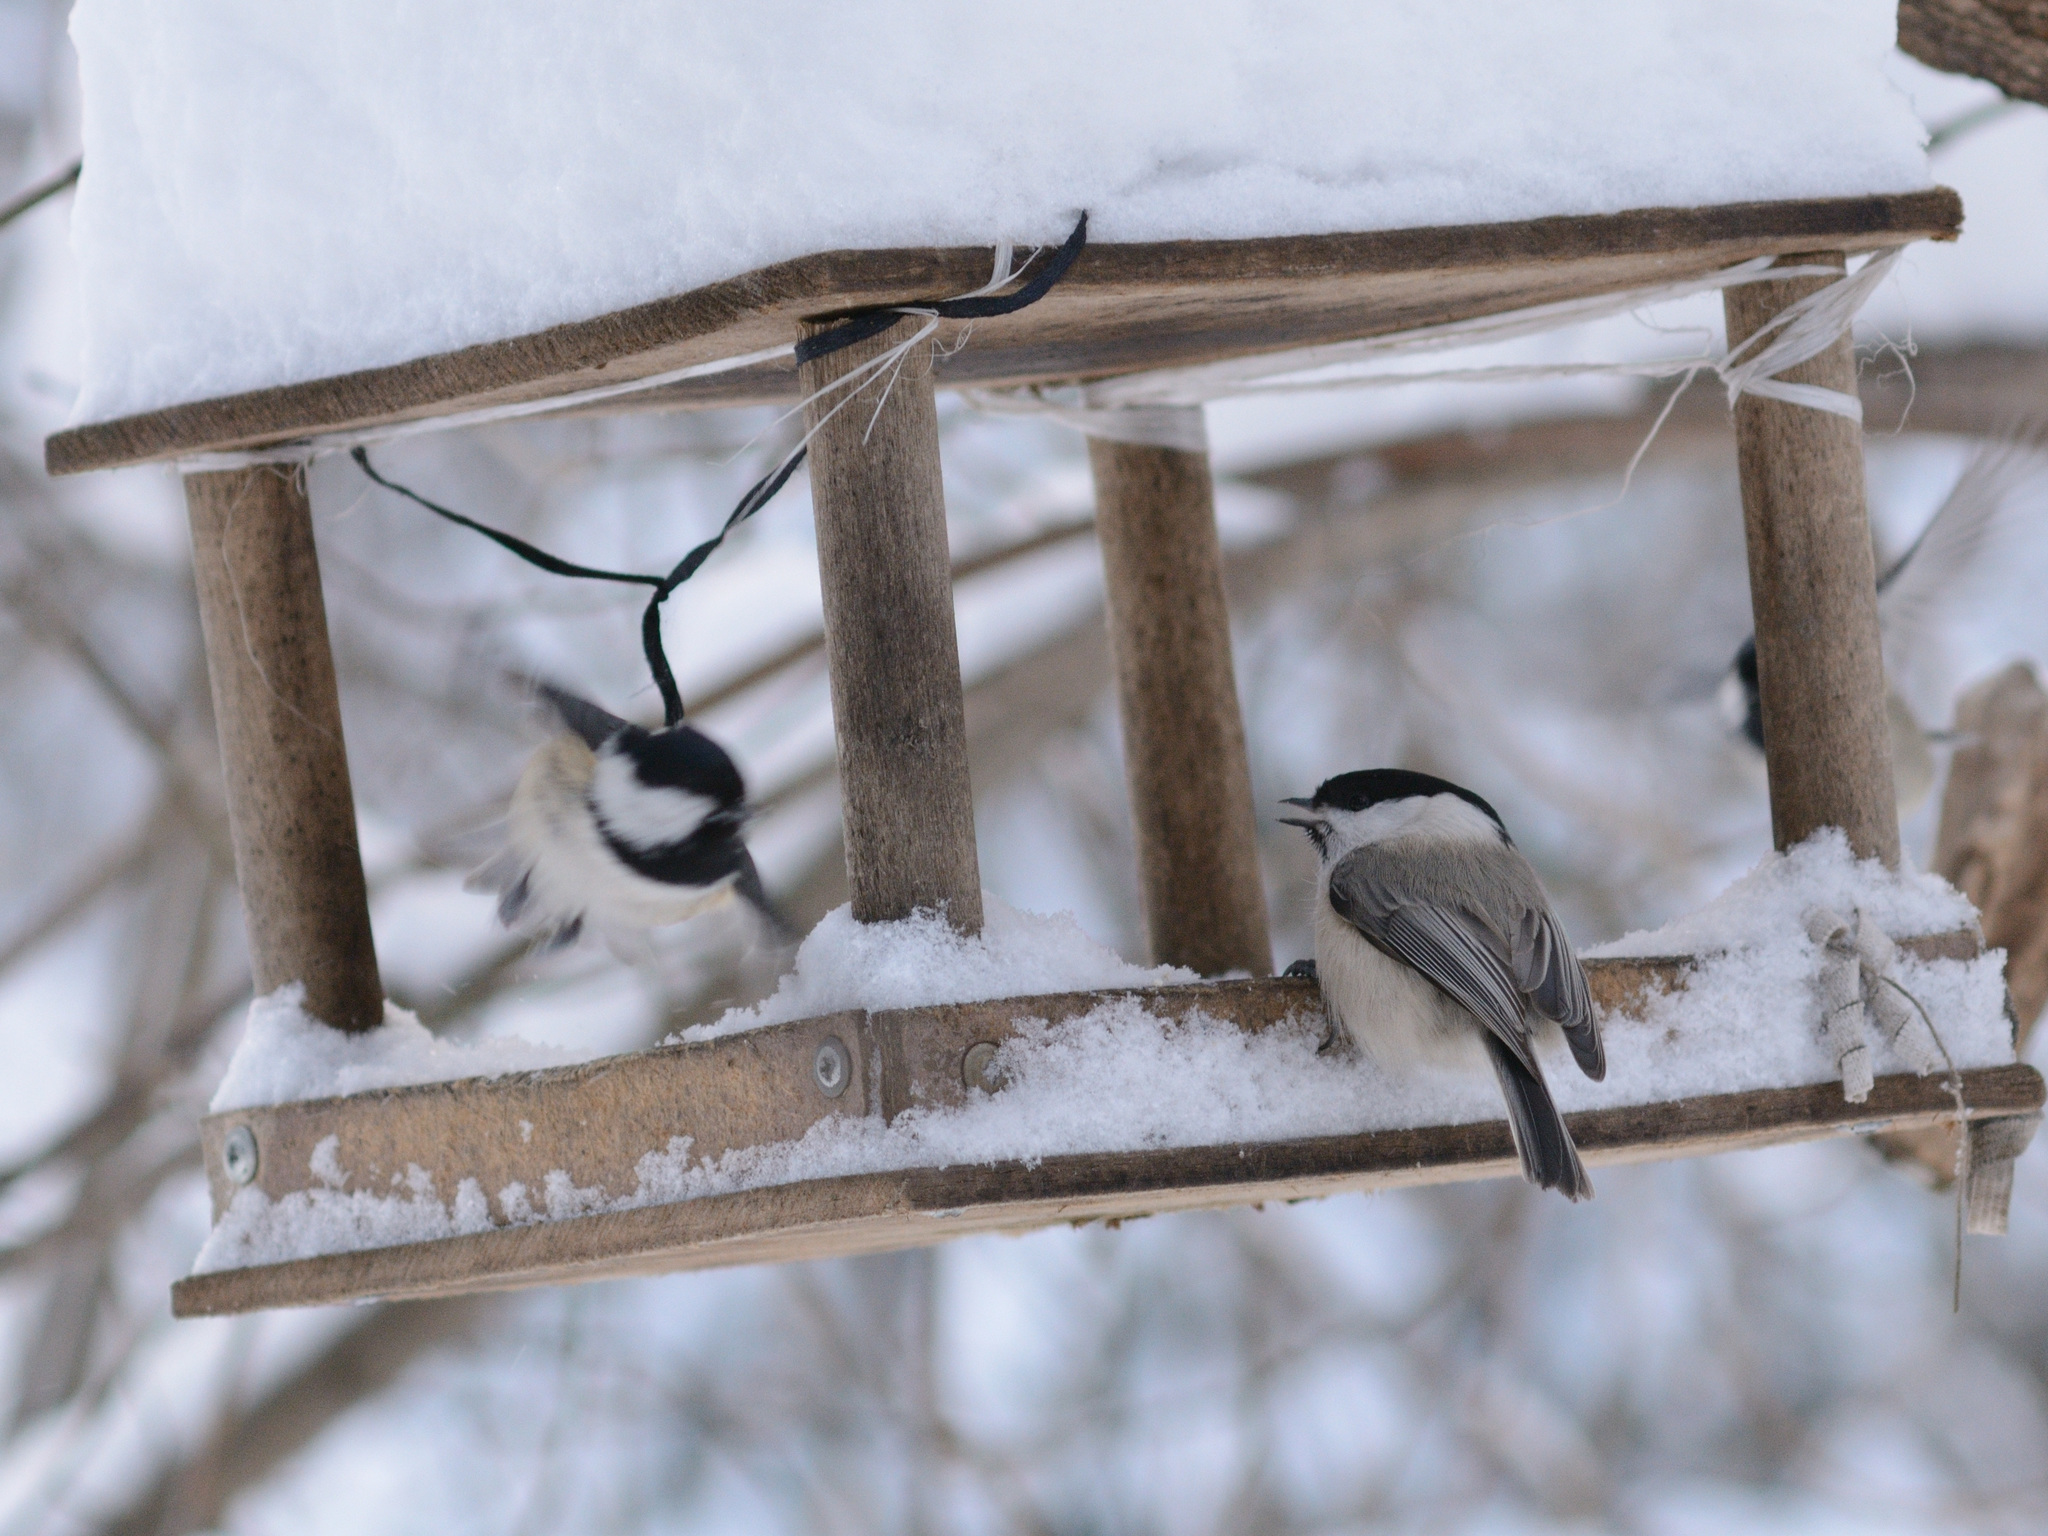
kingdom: Animalia
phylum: Chordata
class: Aves
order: Passeriformes
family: Paridae
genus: Poecile
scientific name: Poecile montanus
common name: Willow tit
